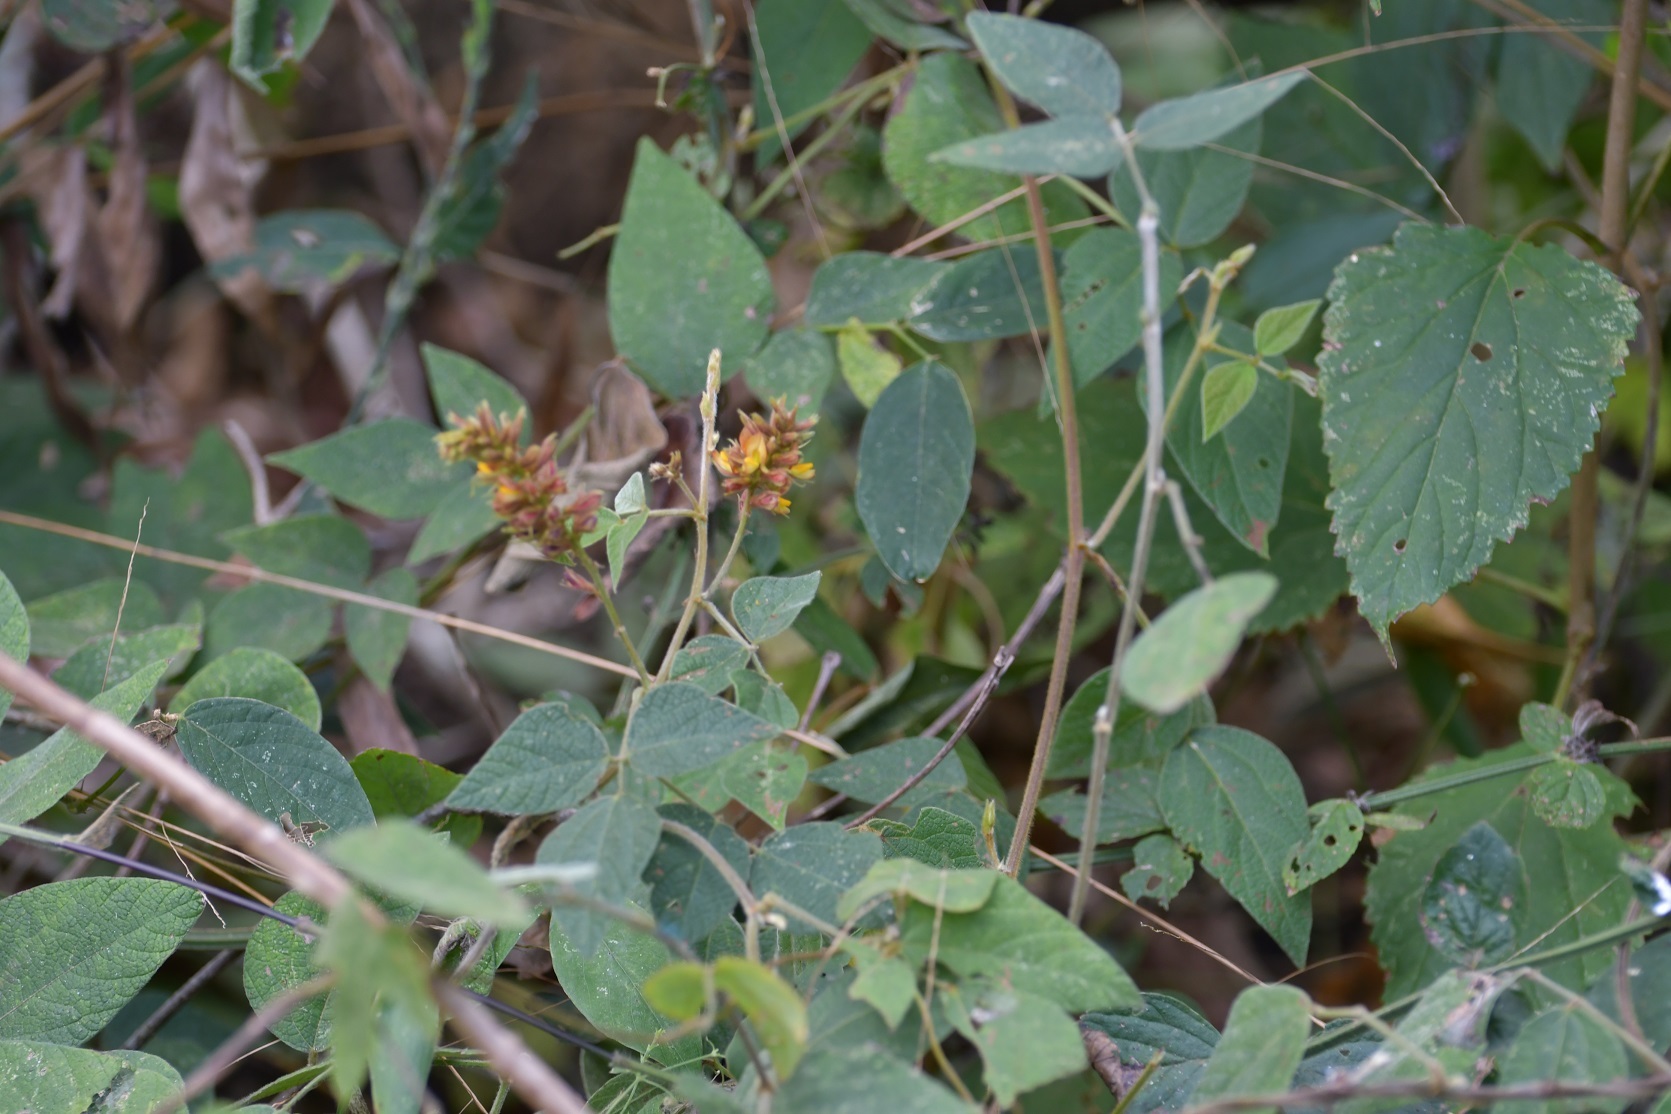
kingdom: Plantae
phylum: Tracheophyta
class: Magnoliopsida
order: Fabales
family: Fabaceae
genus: Rhynchosia
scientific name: Rhynchosia longeracemosa
